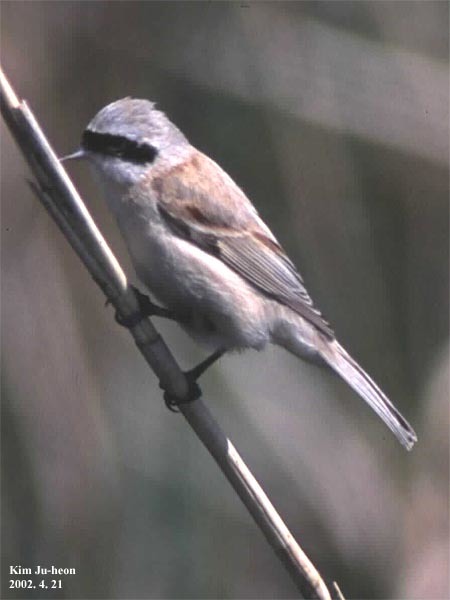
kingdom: Animalia
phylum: Chordata
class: Aves
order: Passeriformes
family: Remizidae
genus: Remiz
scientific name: Remiz consobrinus
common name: Chinese penduline tit
